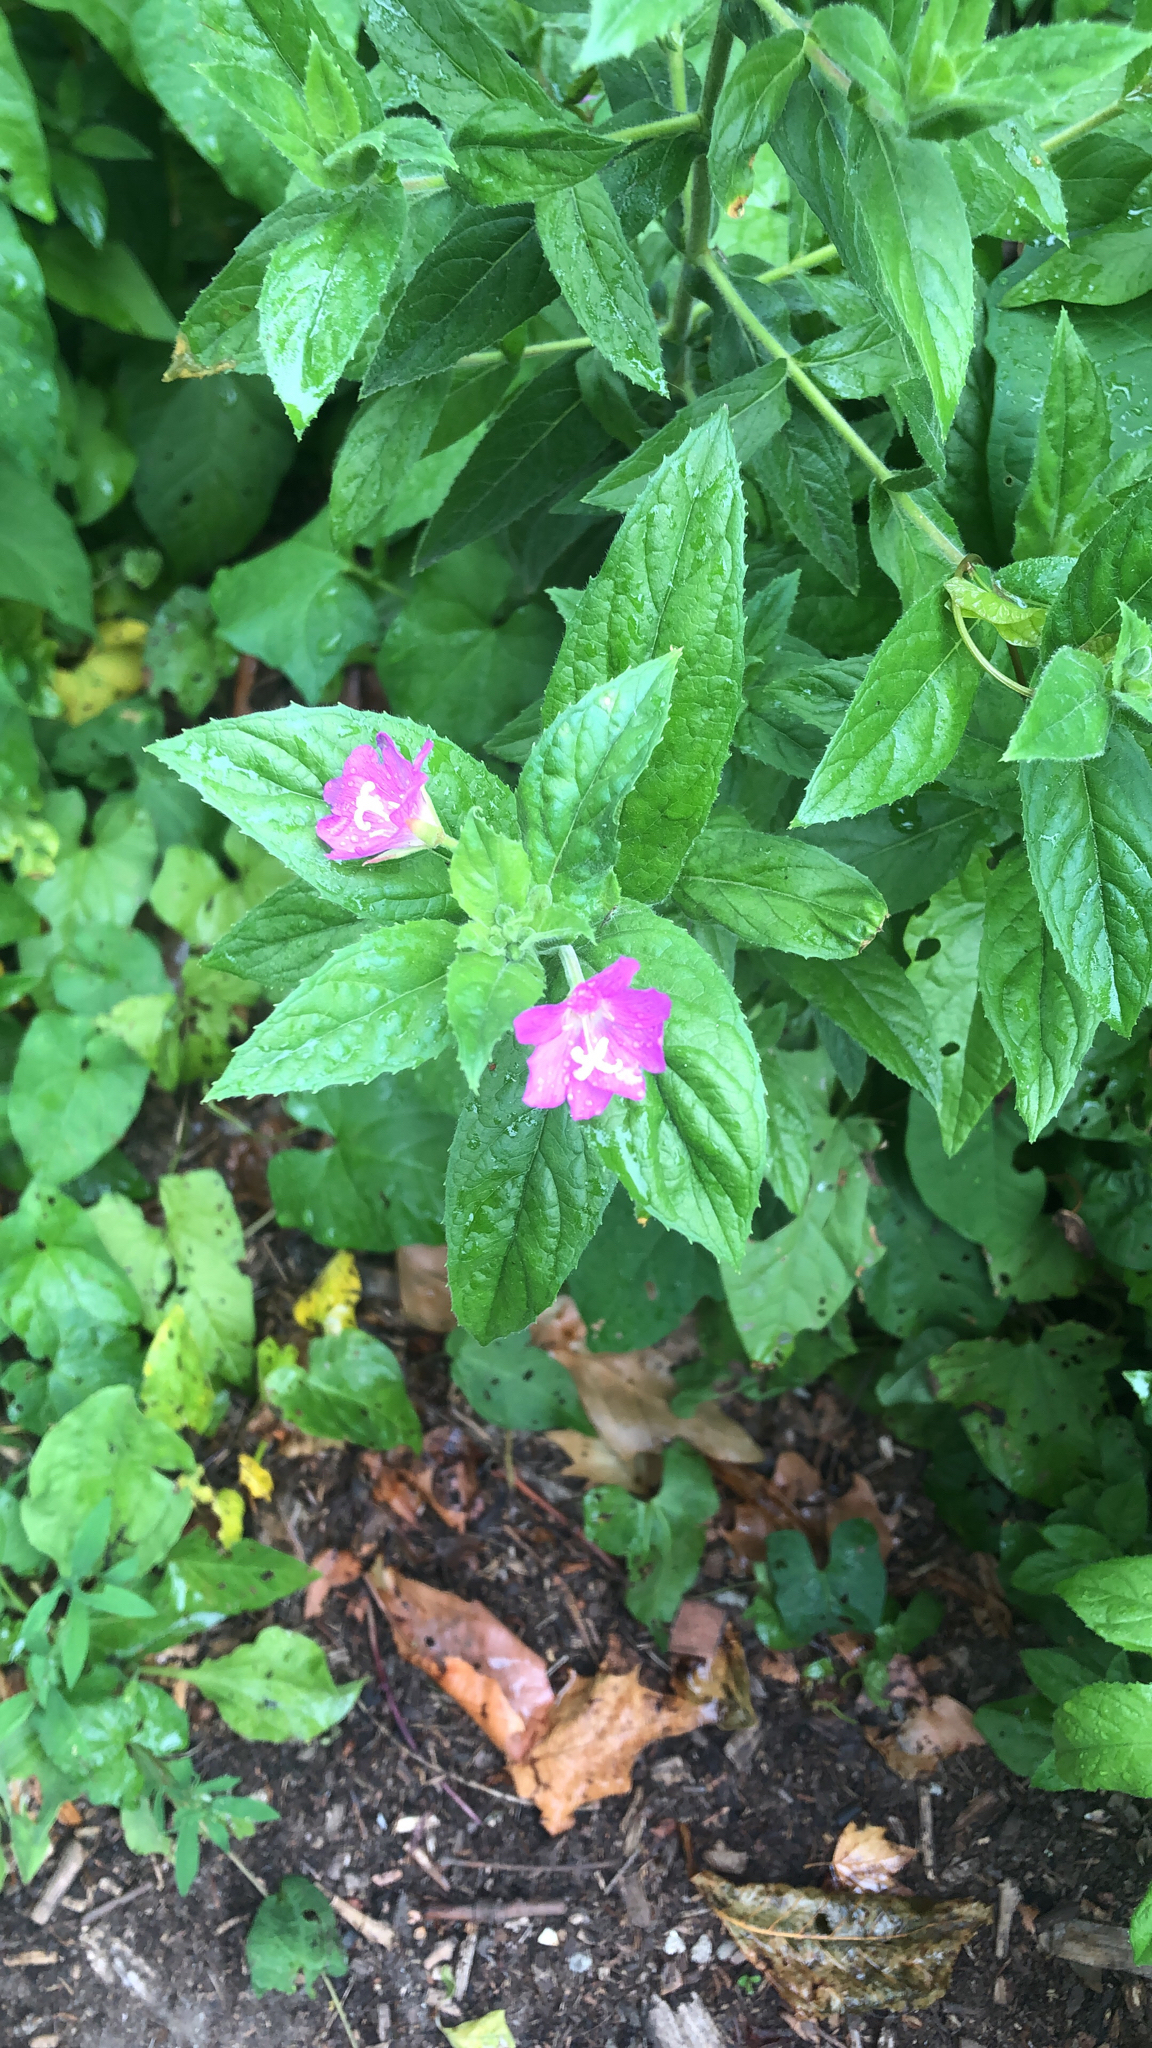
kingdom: Plantae
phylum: Tracheophyta
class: Magnoliopsida
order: Myrtales
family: Onagraceae
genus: Epilobium
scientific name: Epilobium hirsutum
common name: Great willowherb
